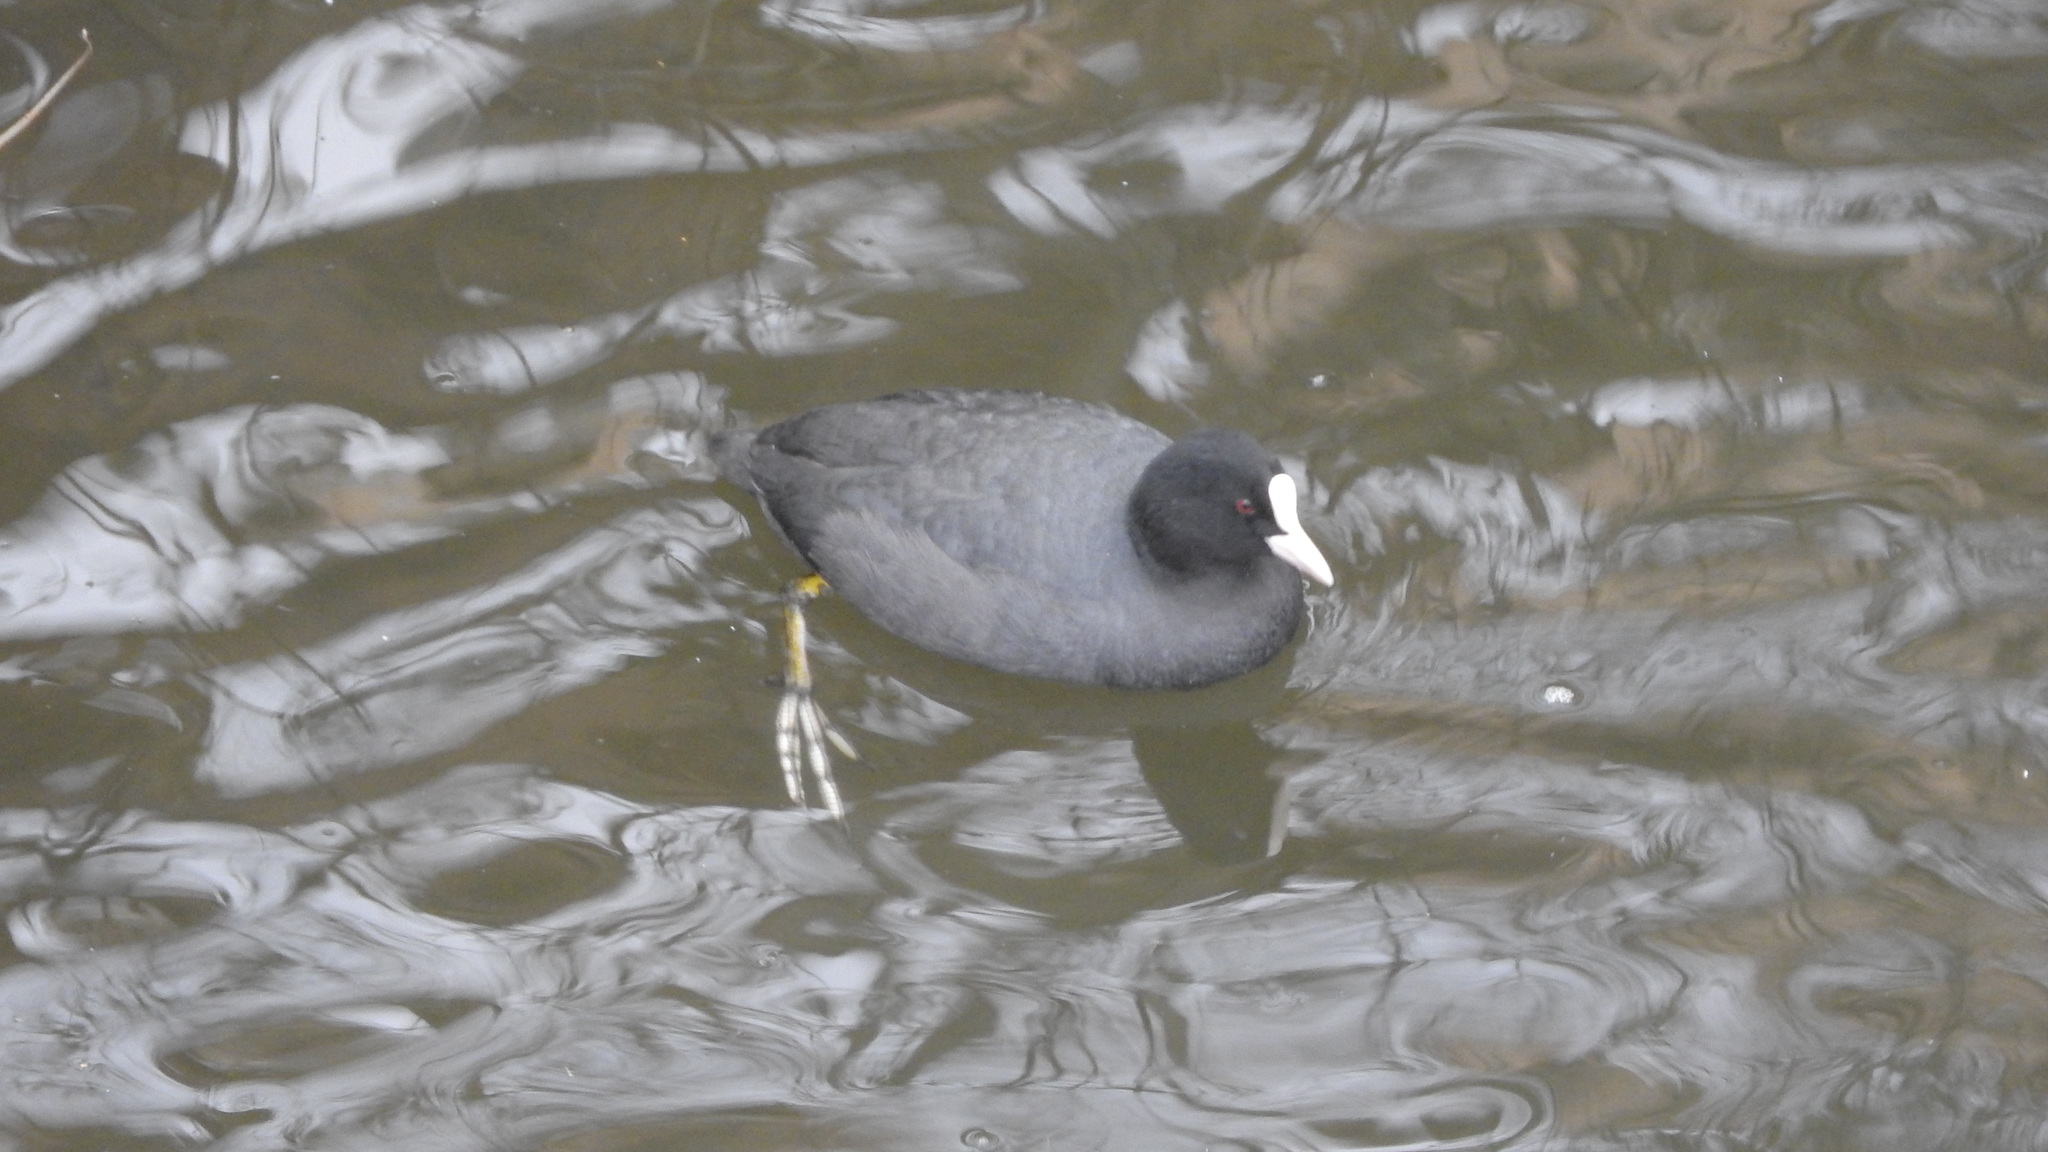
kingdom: Animalia
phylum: Chordata
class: Aves
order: Gruiformes
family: Rallidae
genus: Fulica
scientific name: Fulica atra
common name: Eurasian coot
